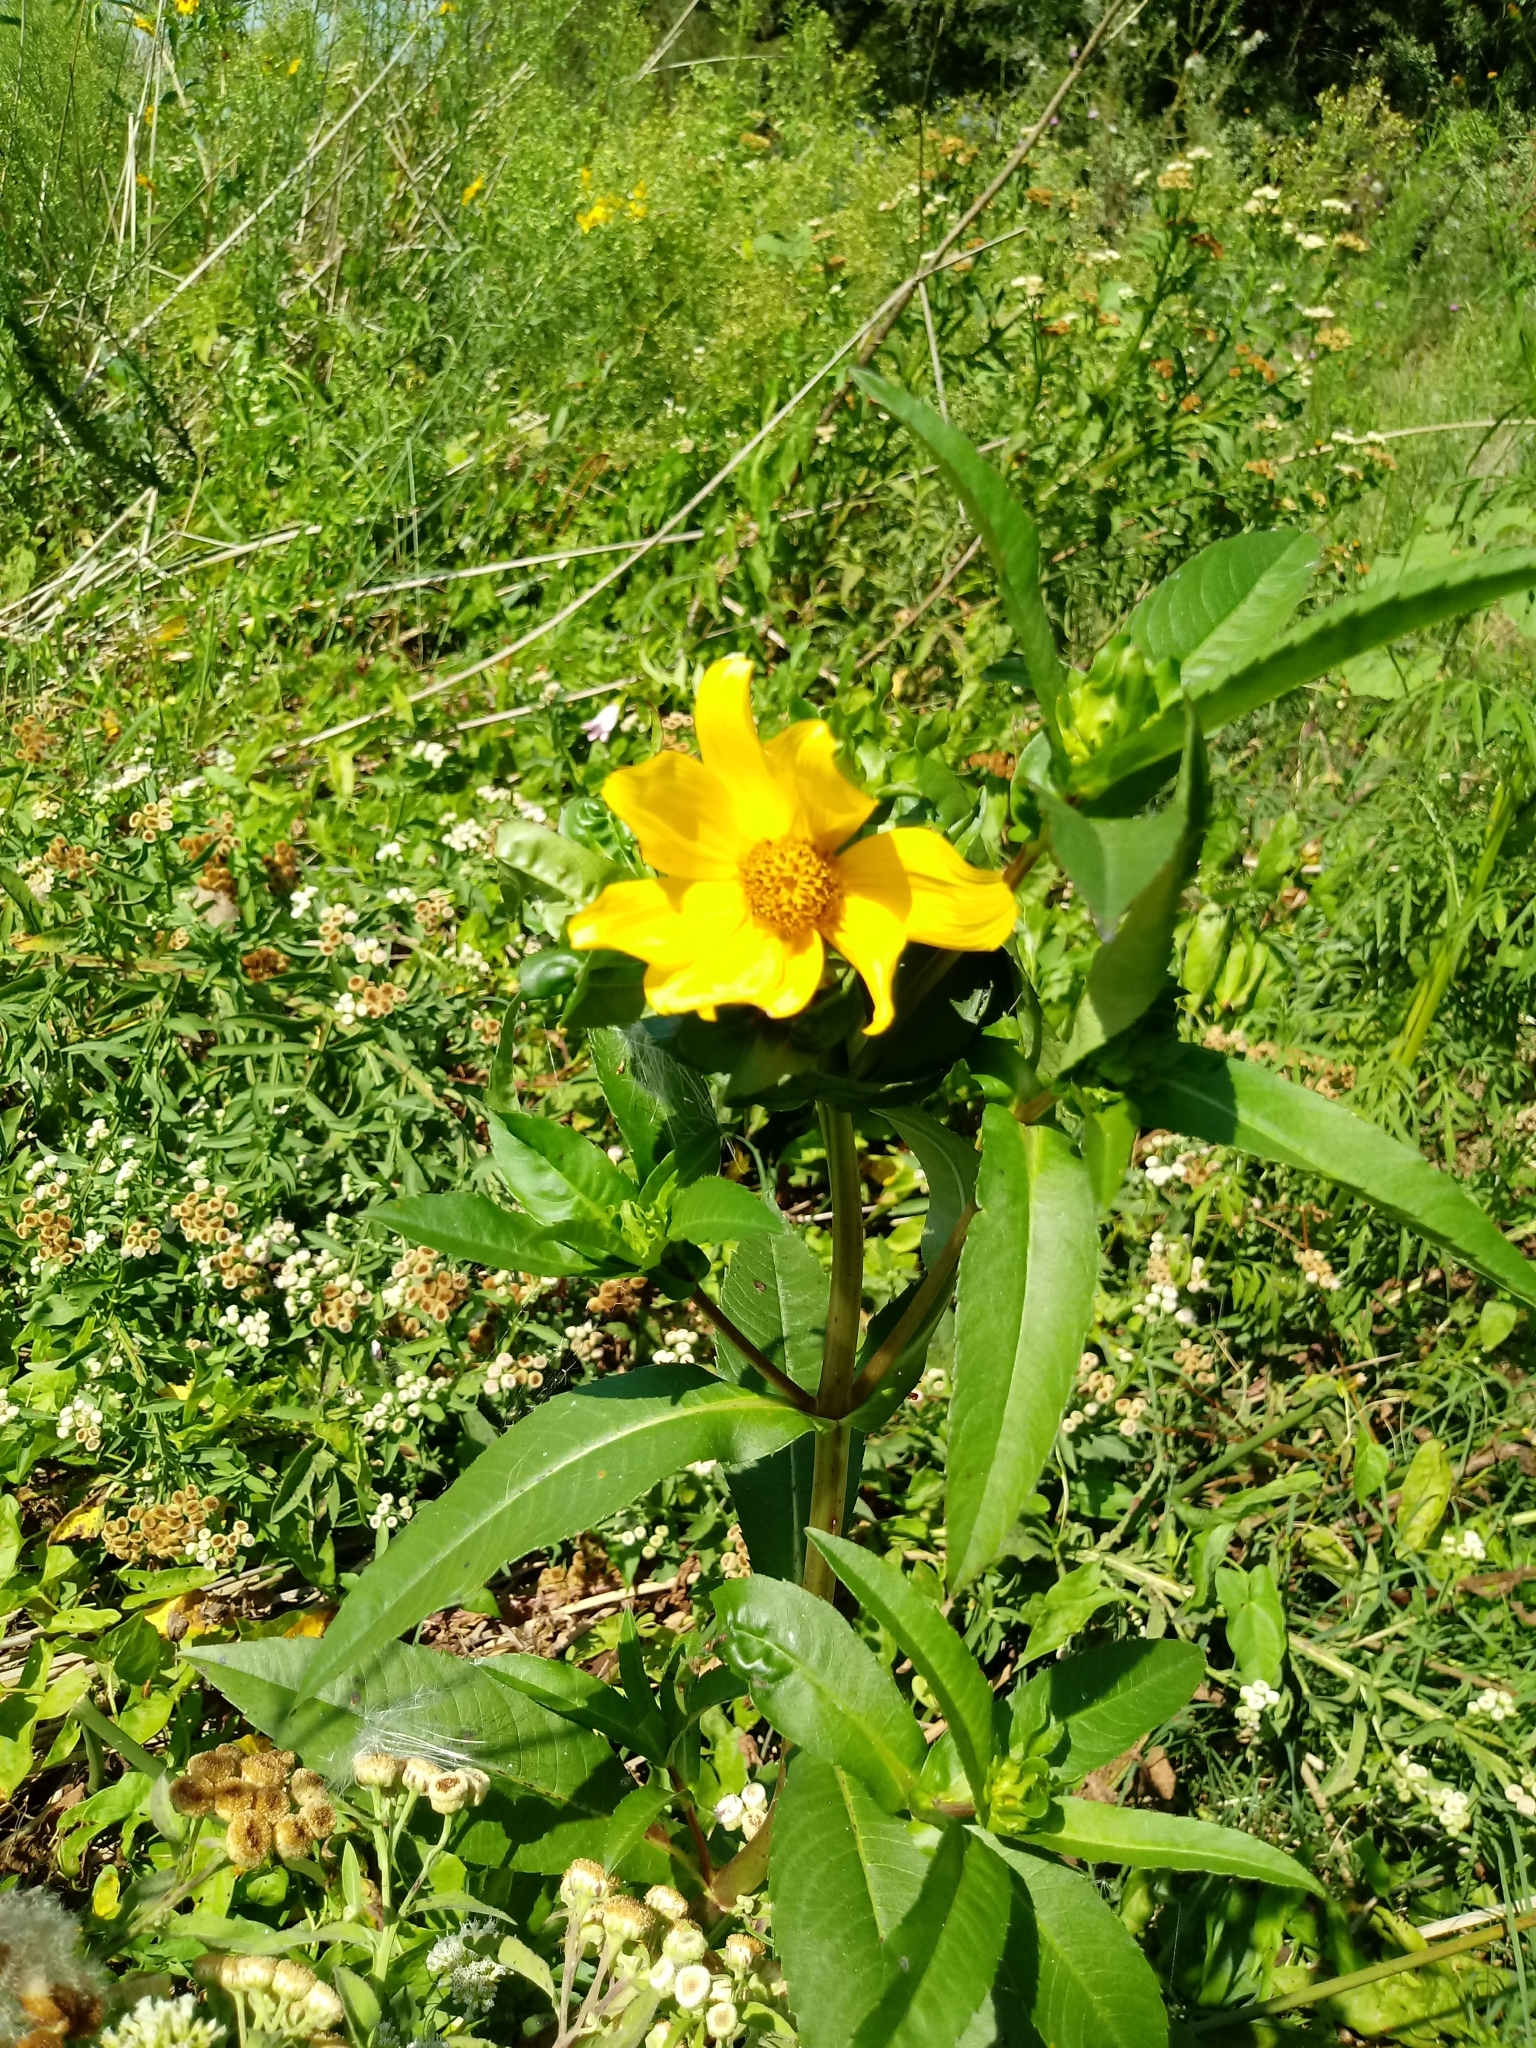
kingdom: Plantae
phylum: Tracheophyta
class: Magnoliopsida
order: Asterales
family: Asteraceae
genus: Bidens
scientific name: Bidens laevis
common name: Larger bur-marigold
